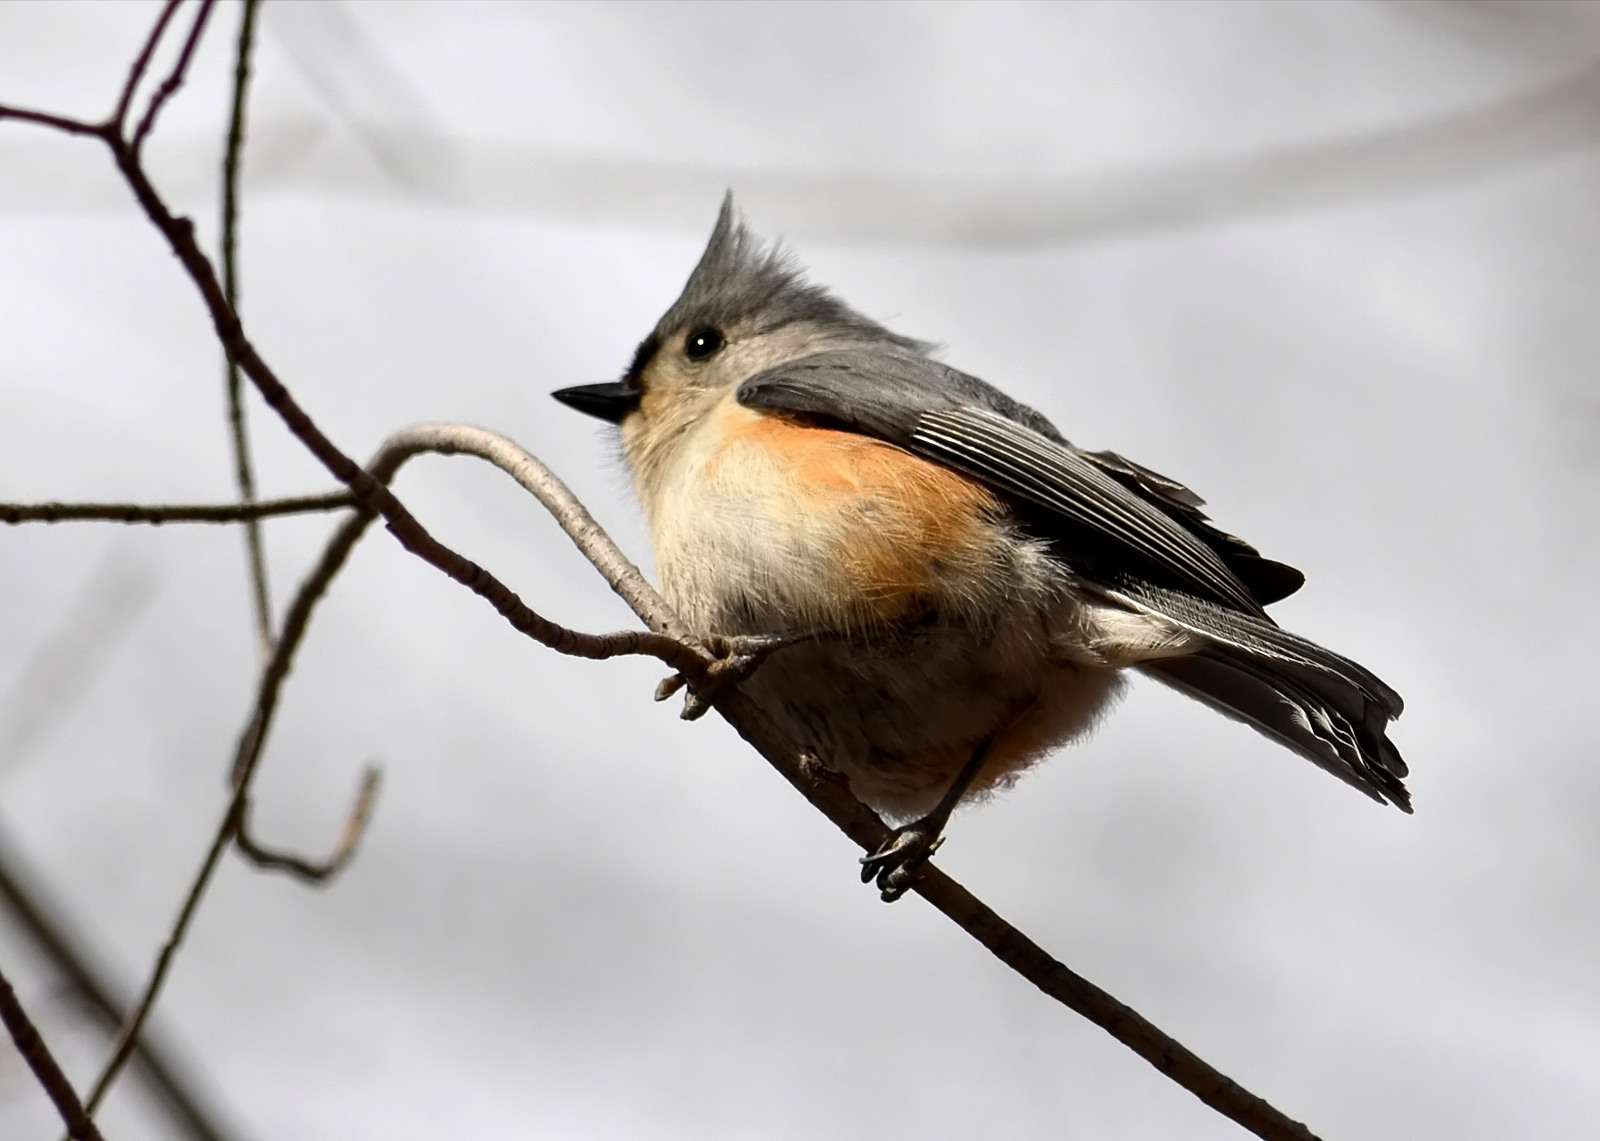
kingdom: Animalia
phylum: Chordata
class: Aves
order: Passeriformes
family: Paridae
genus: Baeolophus
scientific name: Baeolophus bicolor
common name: Tufted titmouse
